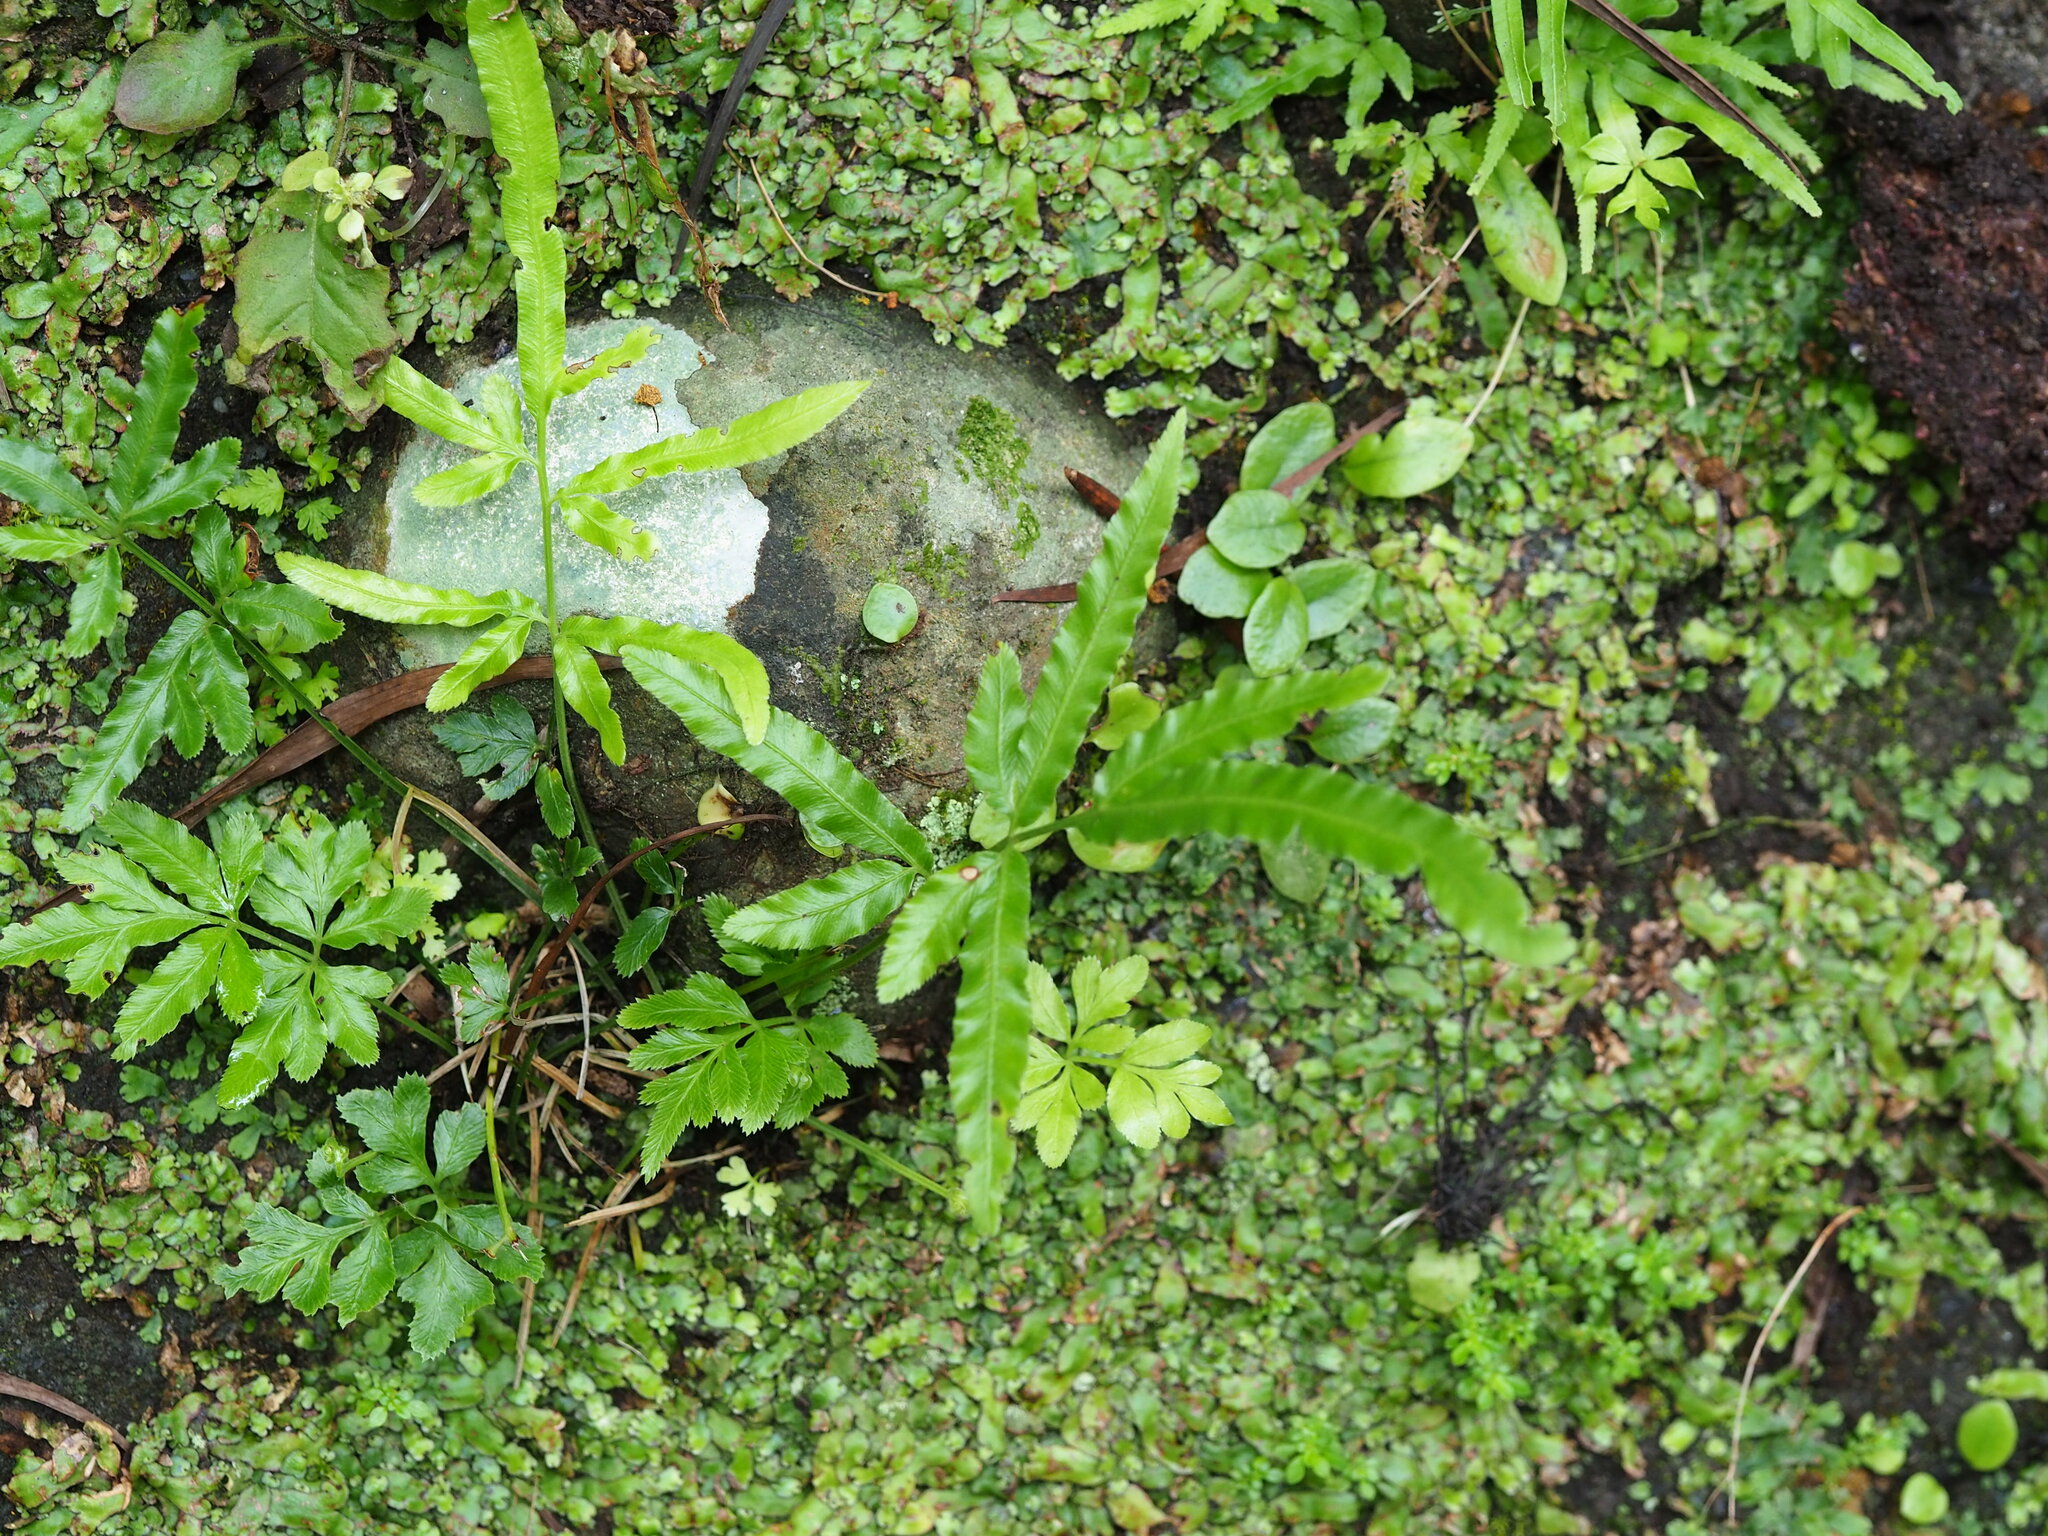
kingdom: Plantae
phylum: Tracheophyta
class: Polypodiopsida
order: Polypodiales
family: Pteridaceae
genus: Pteris
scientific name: Pteris ensiformis
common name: Sword brake
